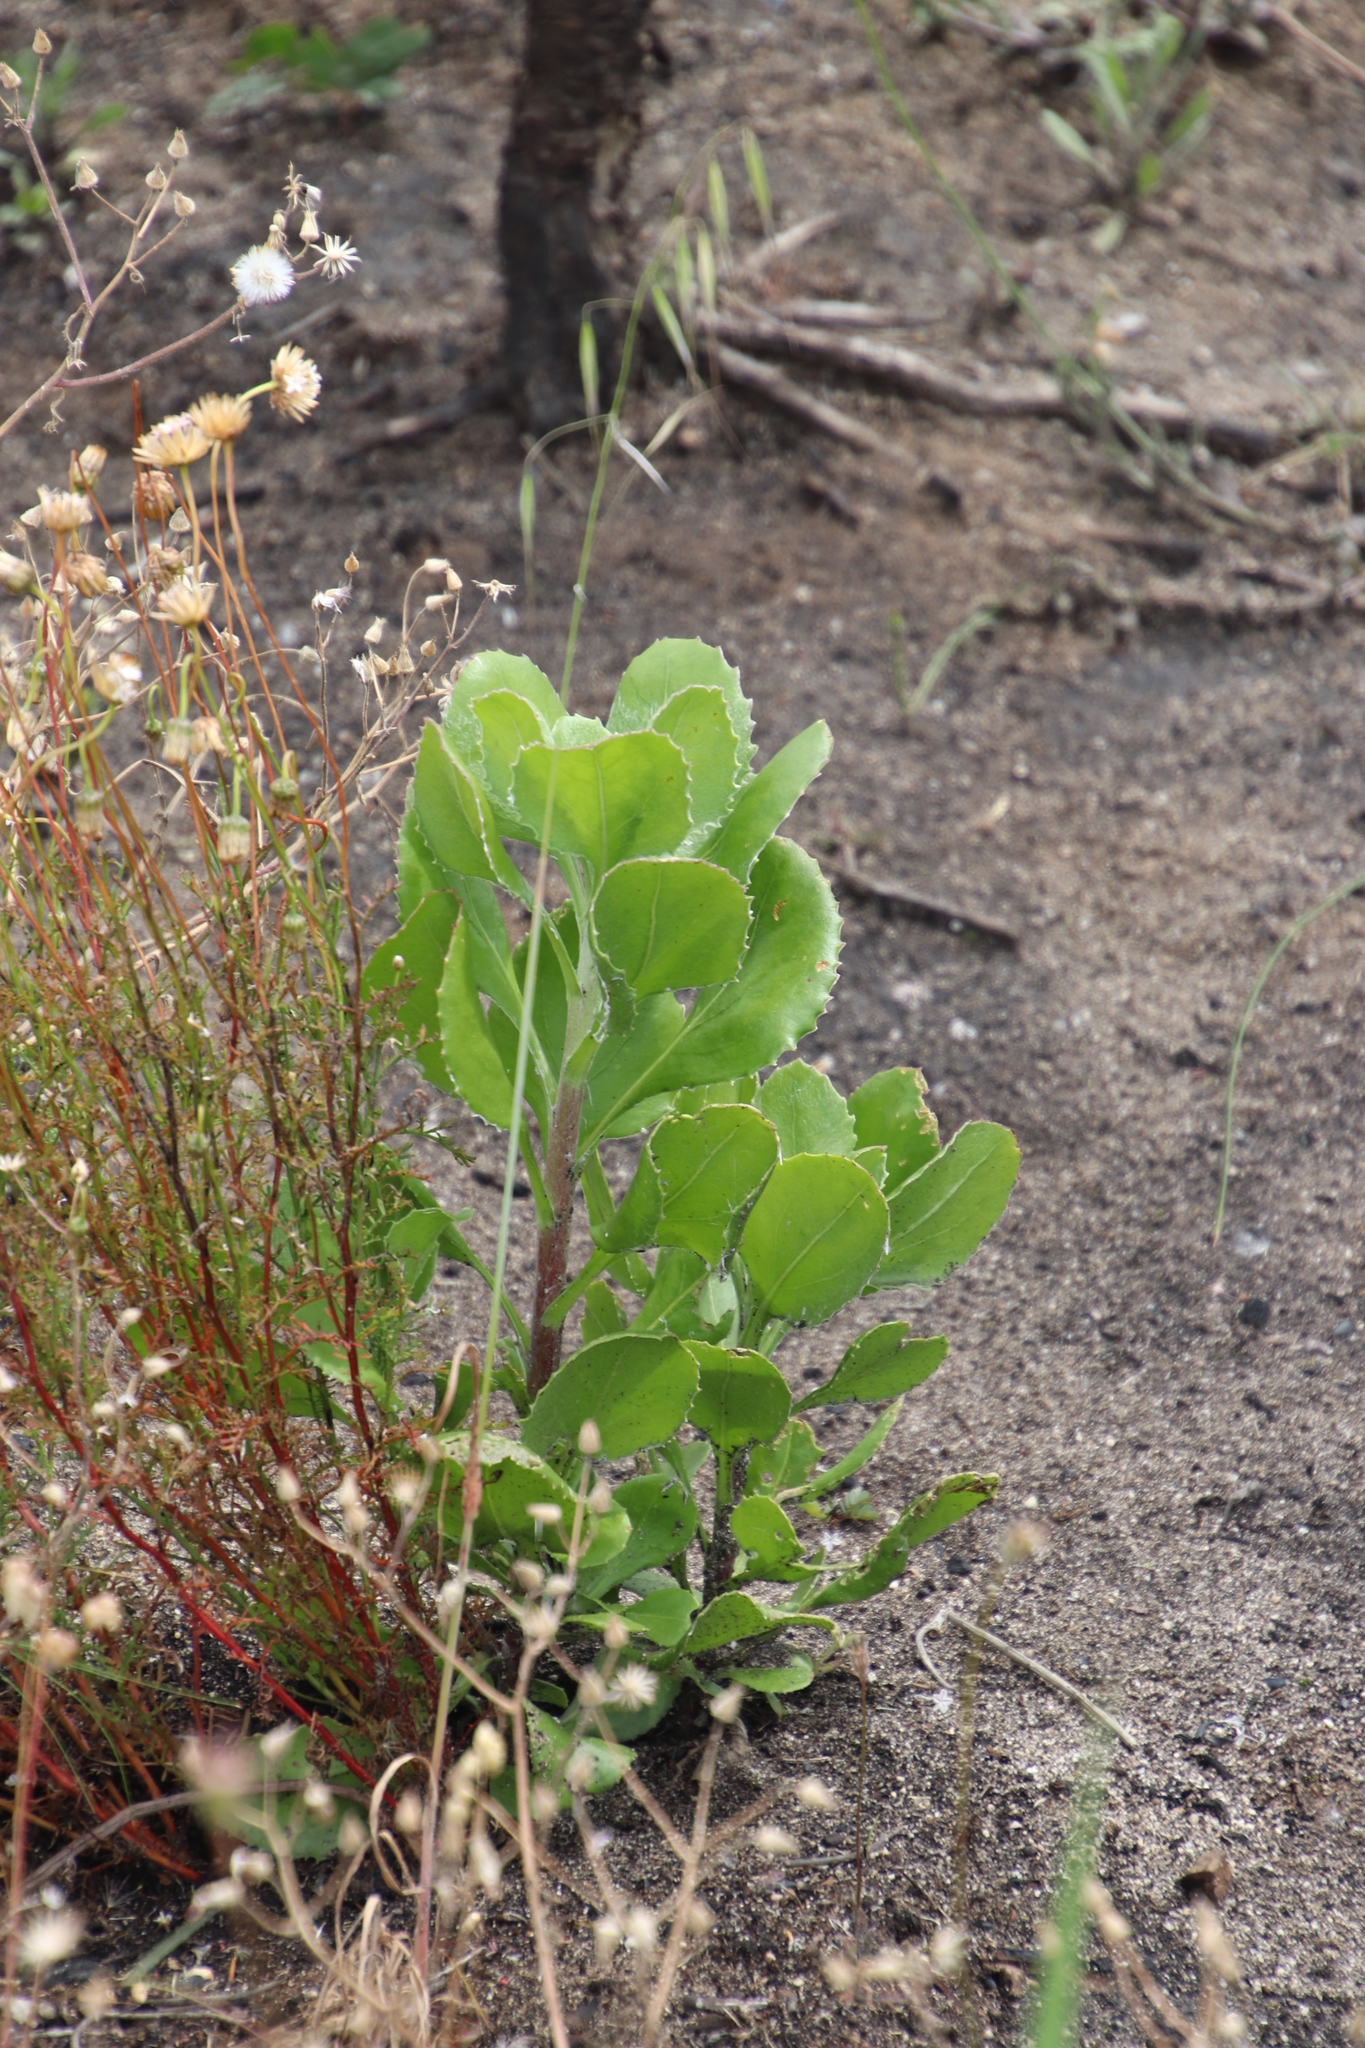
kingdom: Plantae
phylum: Tracheophyta
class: Magnoliopsida
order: Asterales
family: Asteraceae
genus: Osteospermum
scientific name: Osteospermum moniliferum
